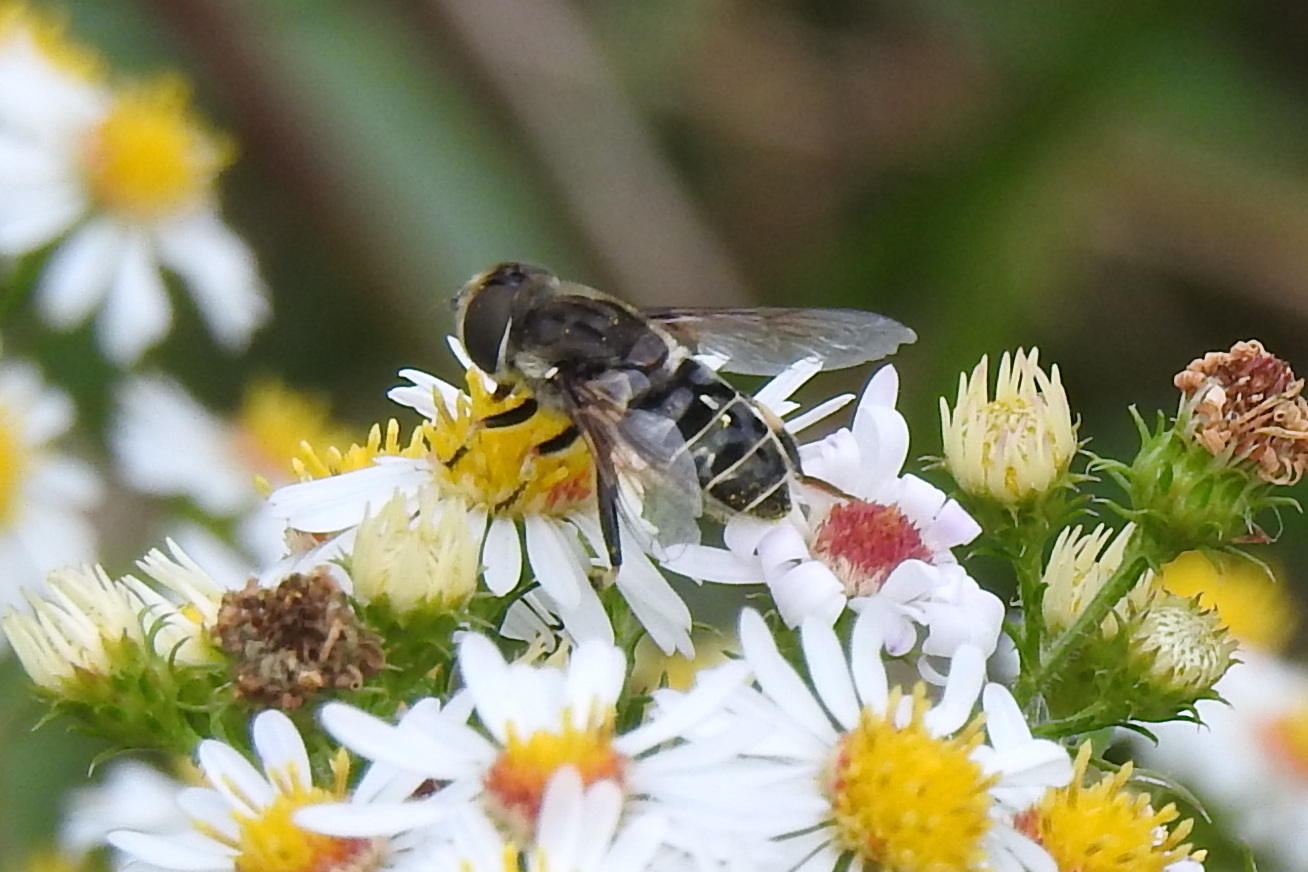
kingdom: Animalia
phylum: Arthropoda
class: Insecta
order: Diptera
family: Syrphidae
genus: Eristalis
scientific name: Eristalis dimidiata
